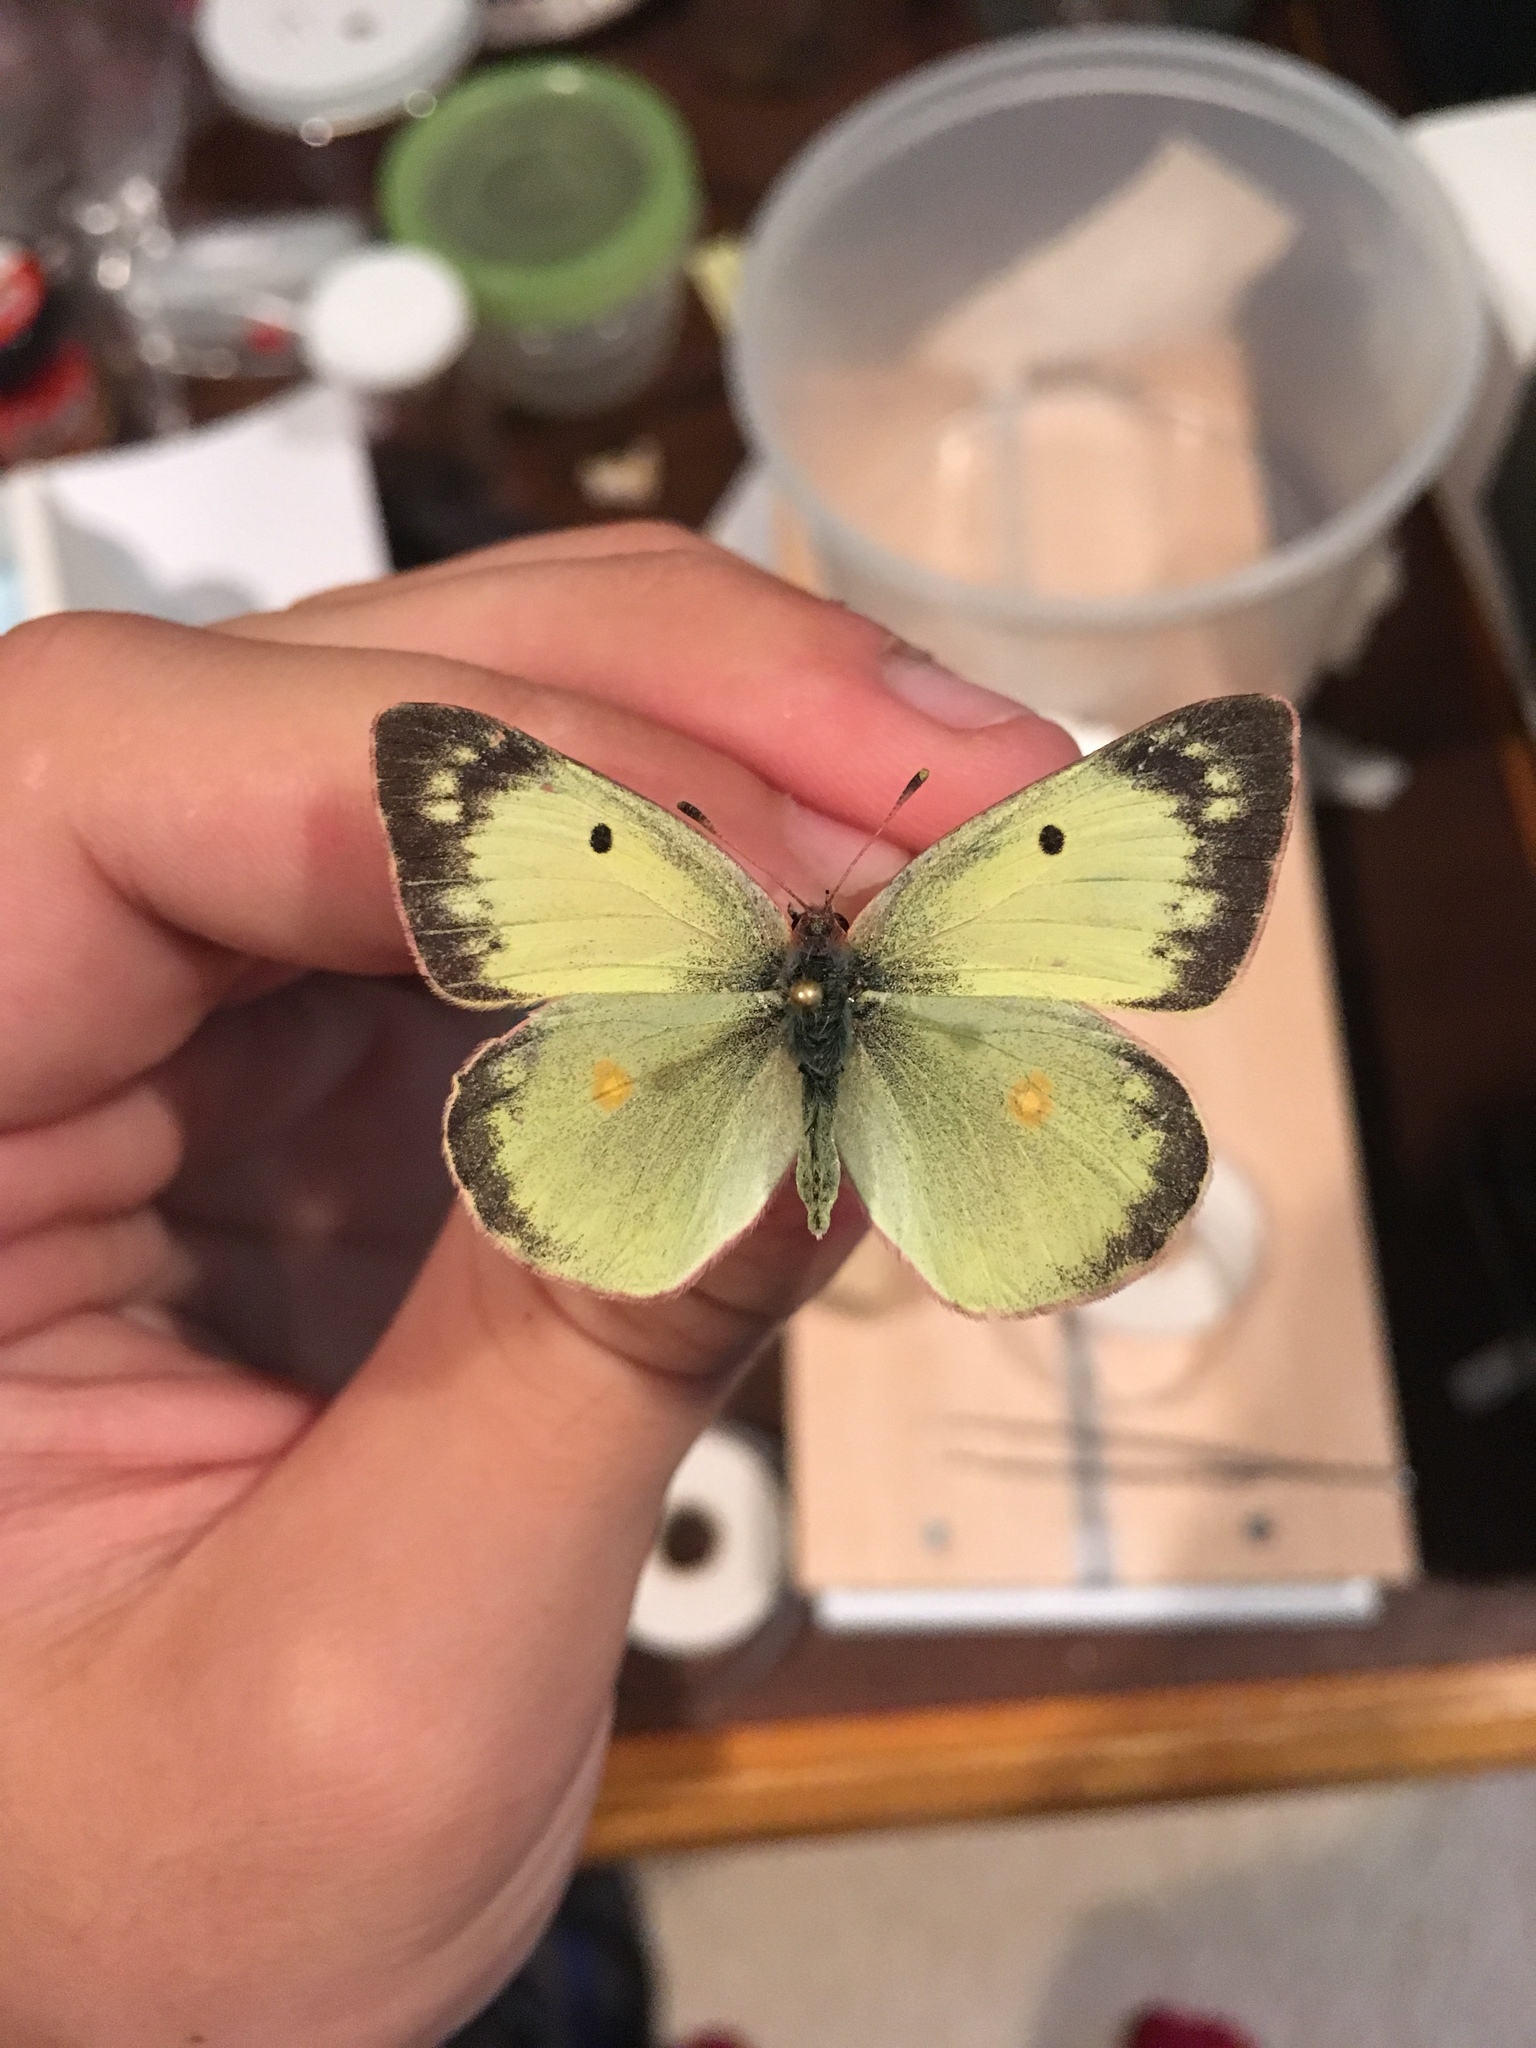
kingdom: Animalia
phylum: Arthropoda
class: Insecta
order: Lepidoptera
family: Pieridae
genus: Colias
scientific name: Colias philodice
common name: Clouded sulphur
